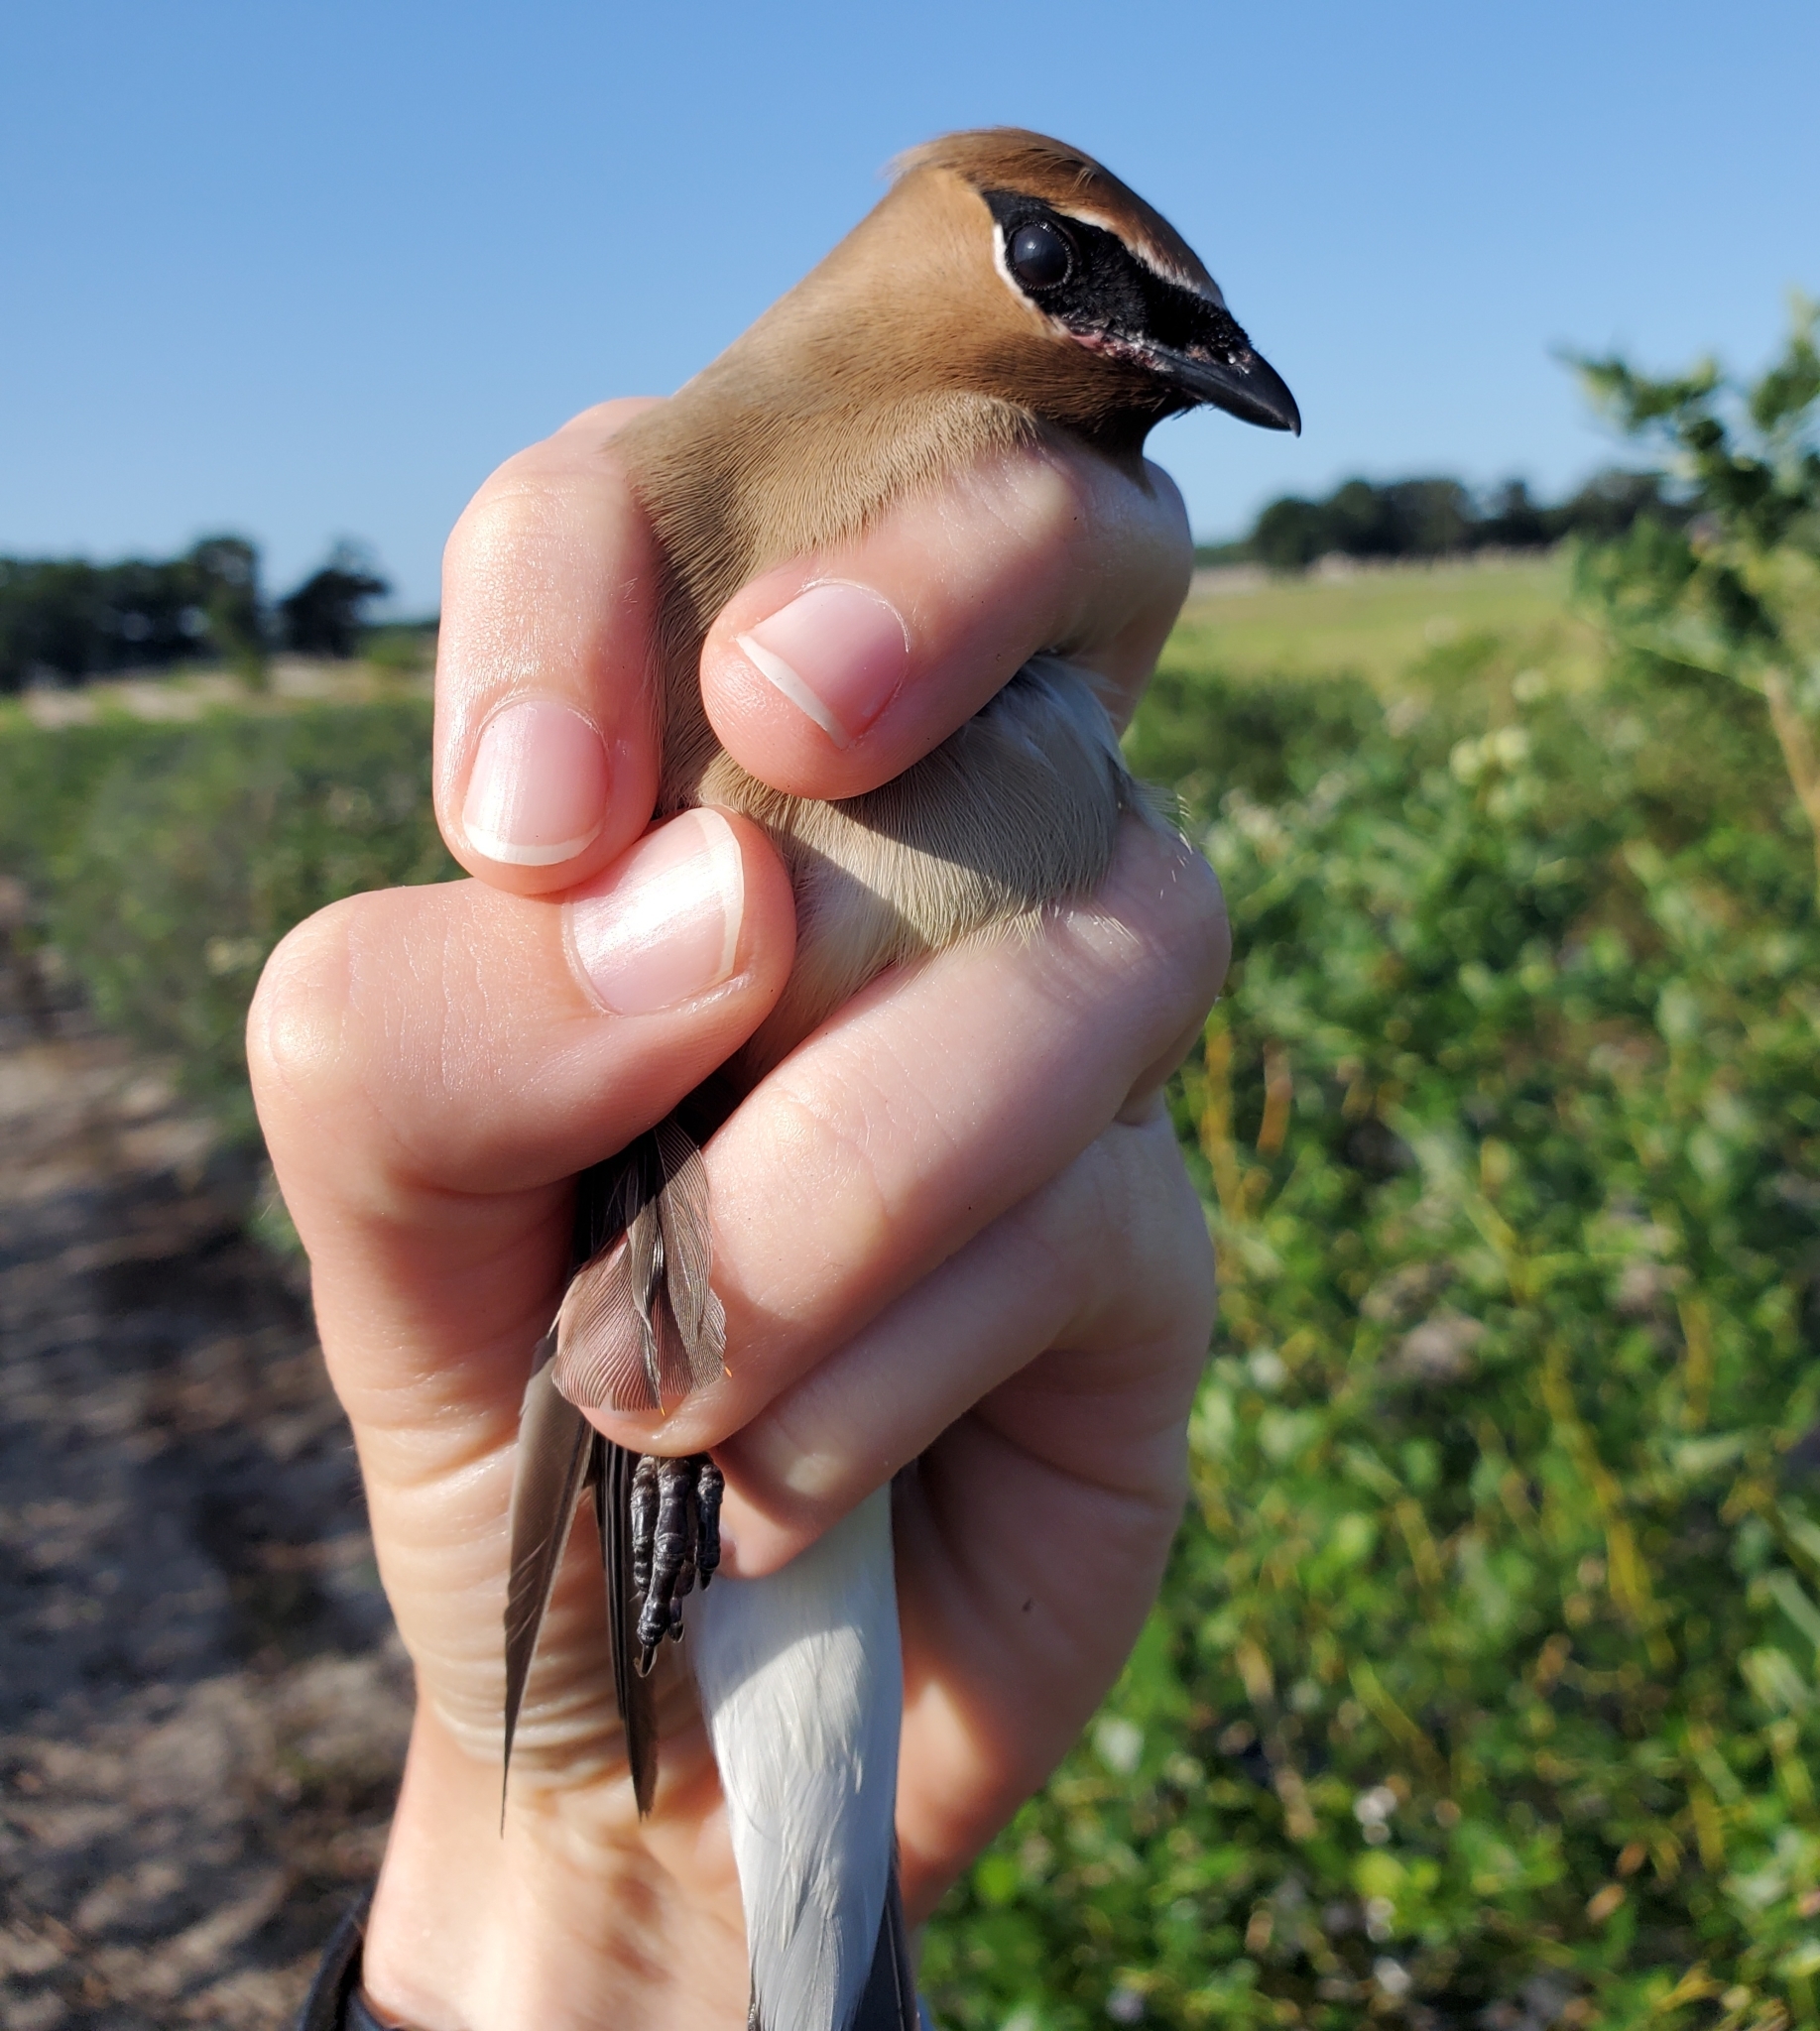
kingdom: Animalia
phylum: Chordata
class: Aves
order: Passeriformes
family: Bombycillidae
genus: Bombycilla
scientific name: Bombycilla cedrorum
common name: Cedar waxwing
